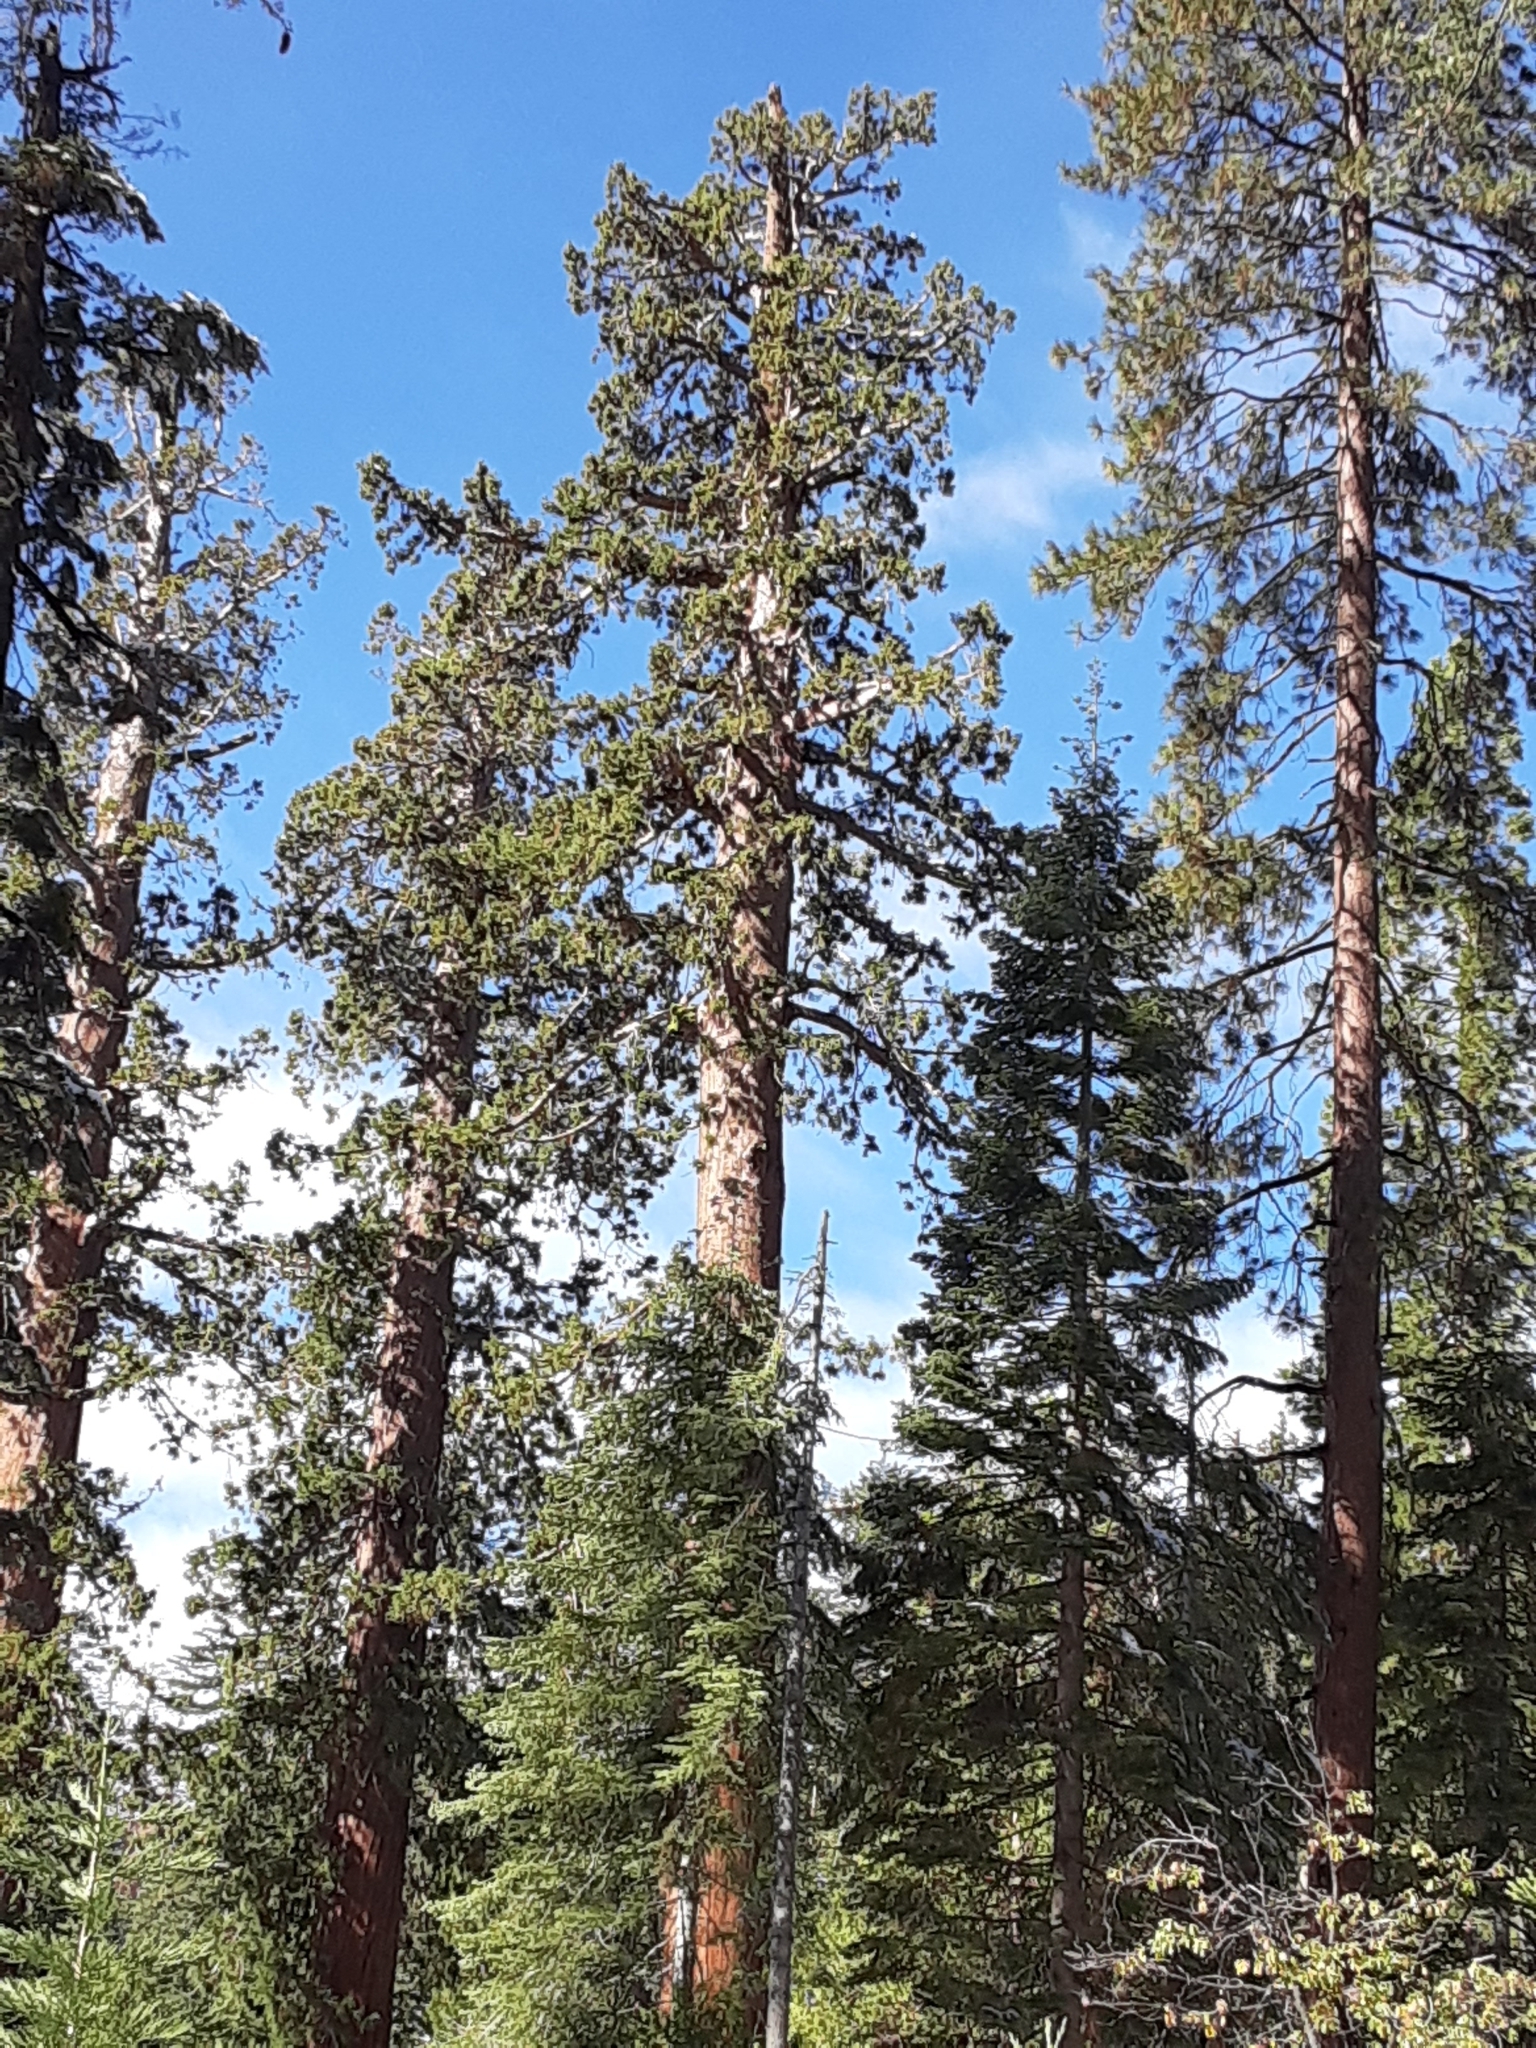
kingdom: Plantae
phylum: Tracheophyta
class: Pinopsida
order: Pinales
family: Cupressaceae
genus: Sequoiadendron
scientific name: Sequoiadendron giganteum
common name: Wellingtonia
